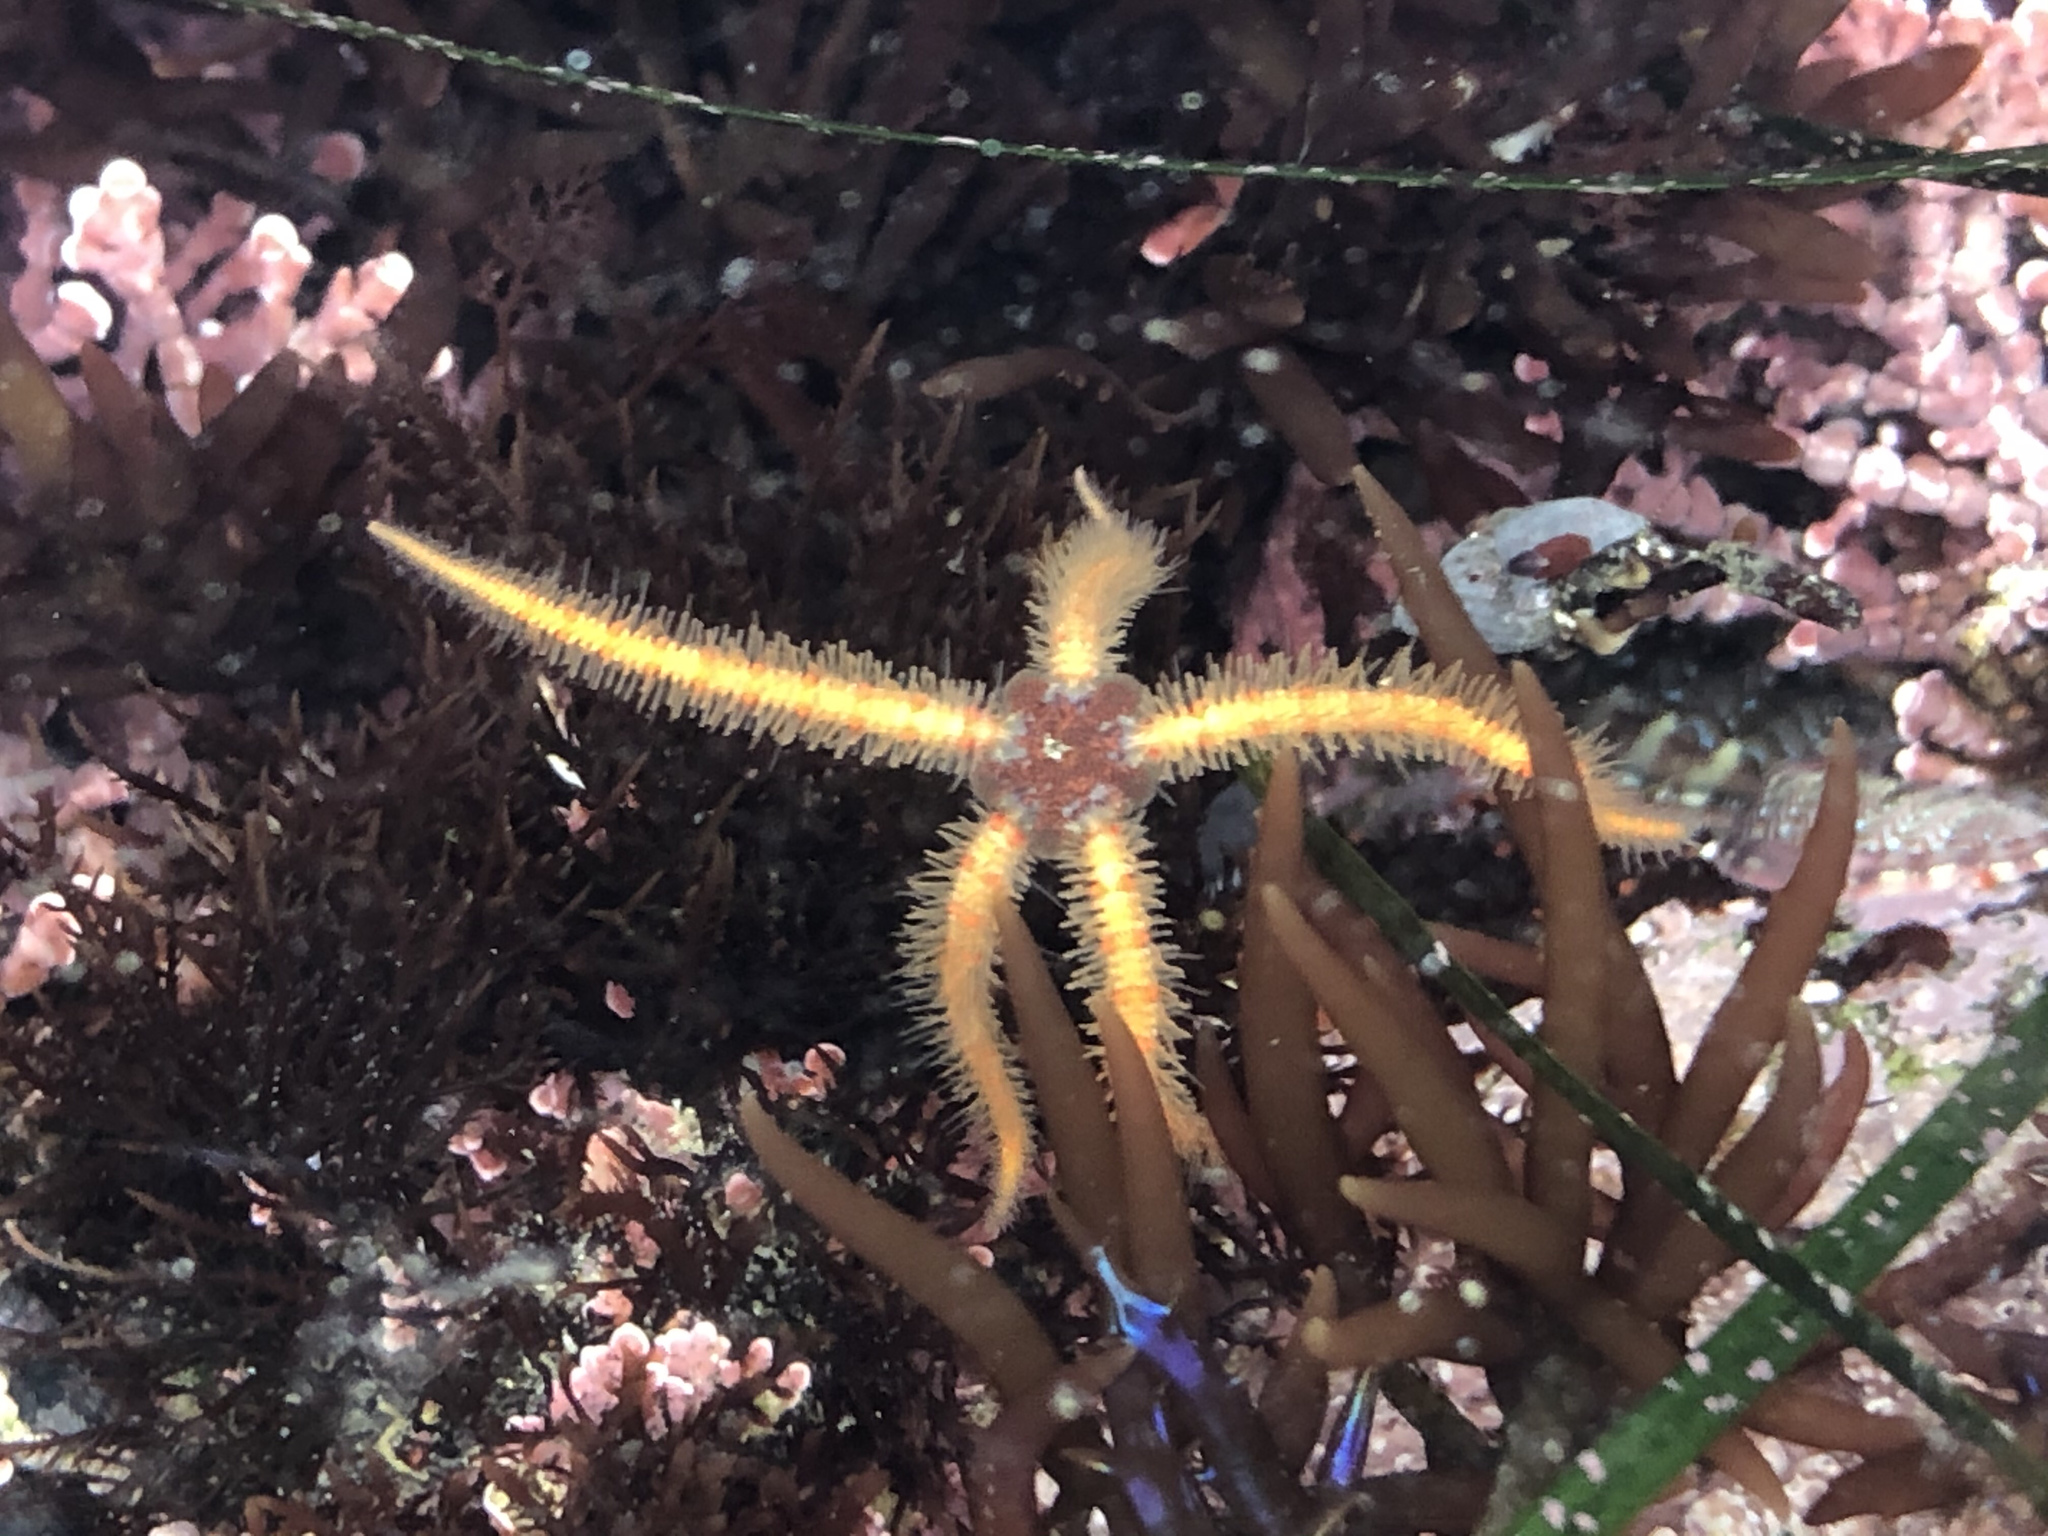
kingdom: Animalia
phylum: Echinodermata
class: Ophiuroidea
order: Amphilepidida
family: Ophiotrichidae
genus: Ophiothrix
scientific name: Ophiothrix spiculata
